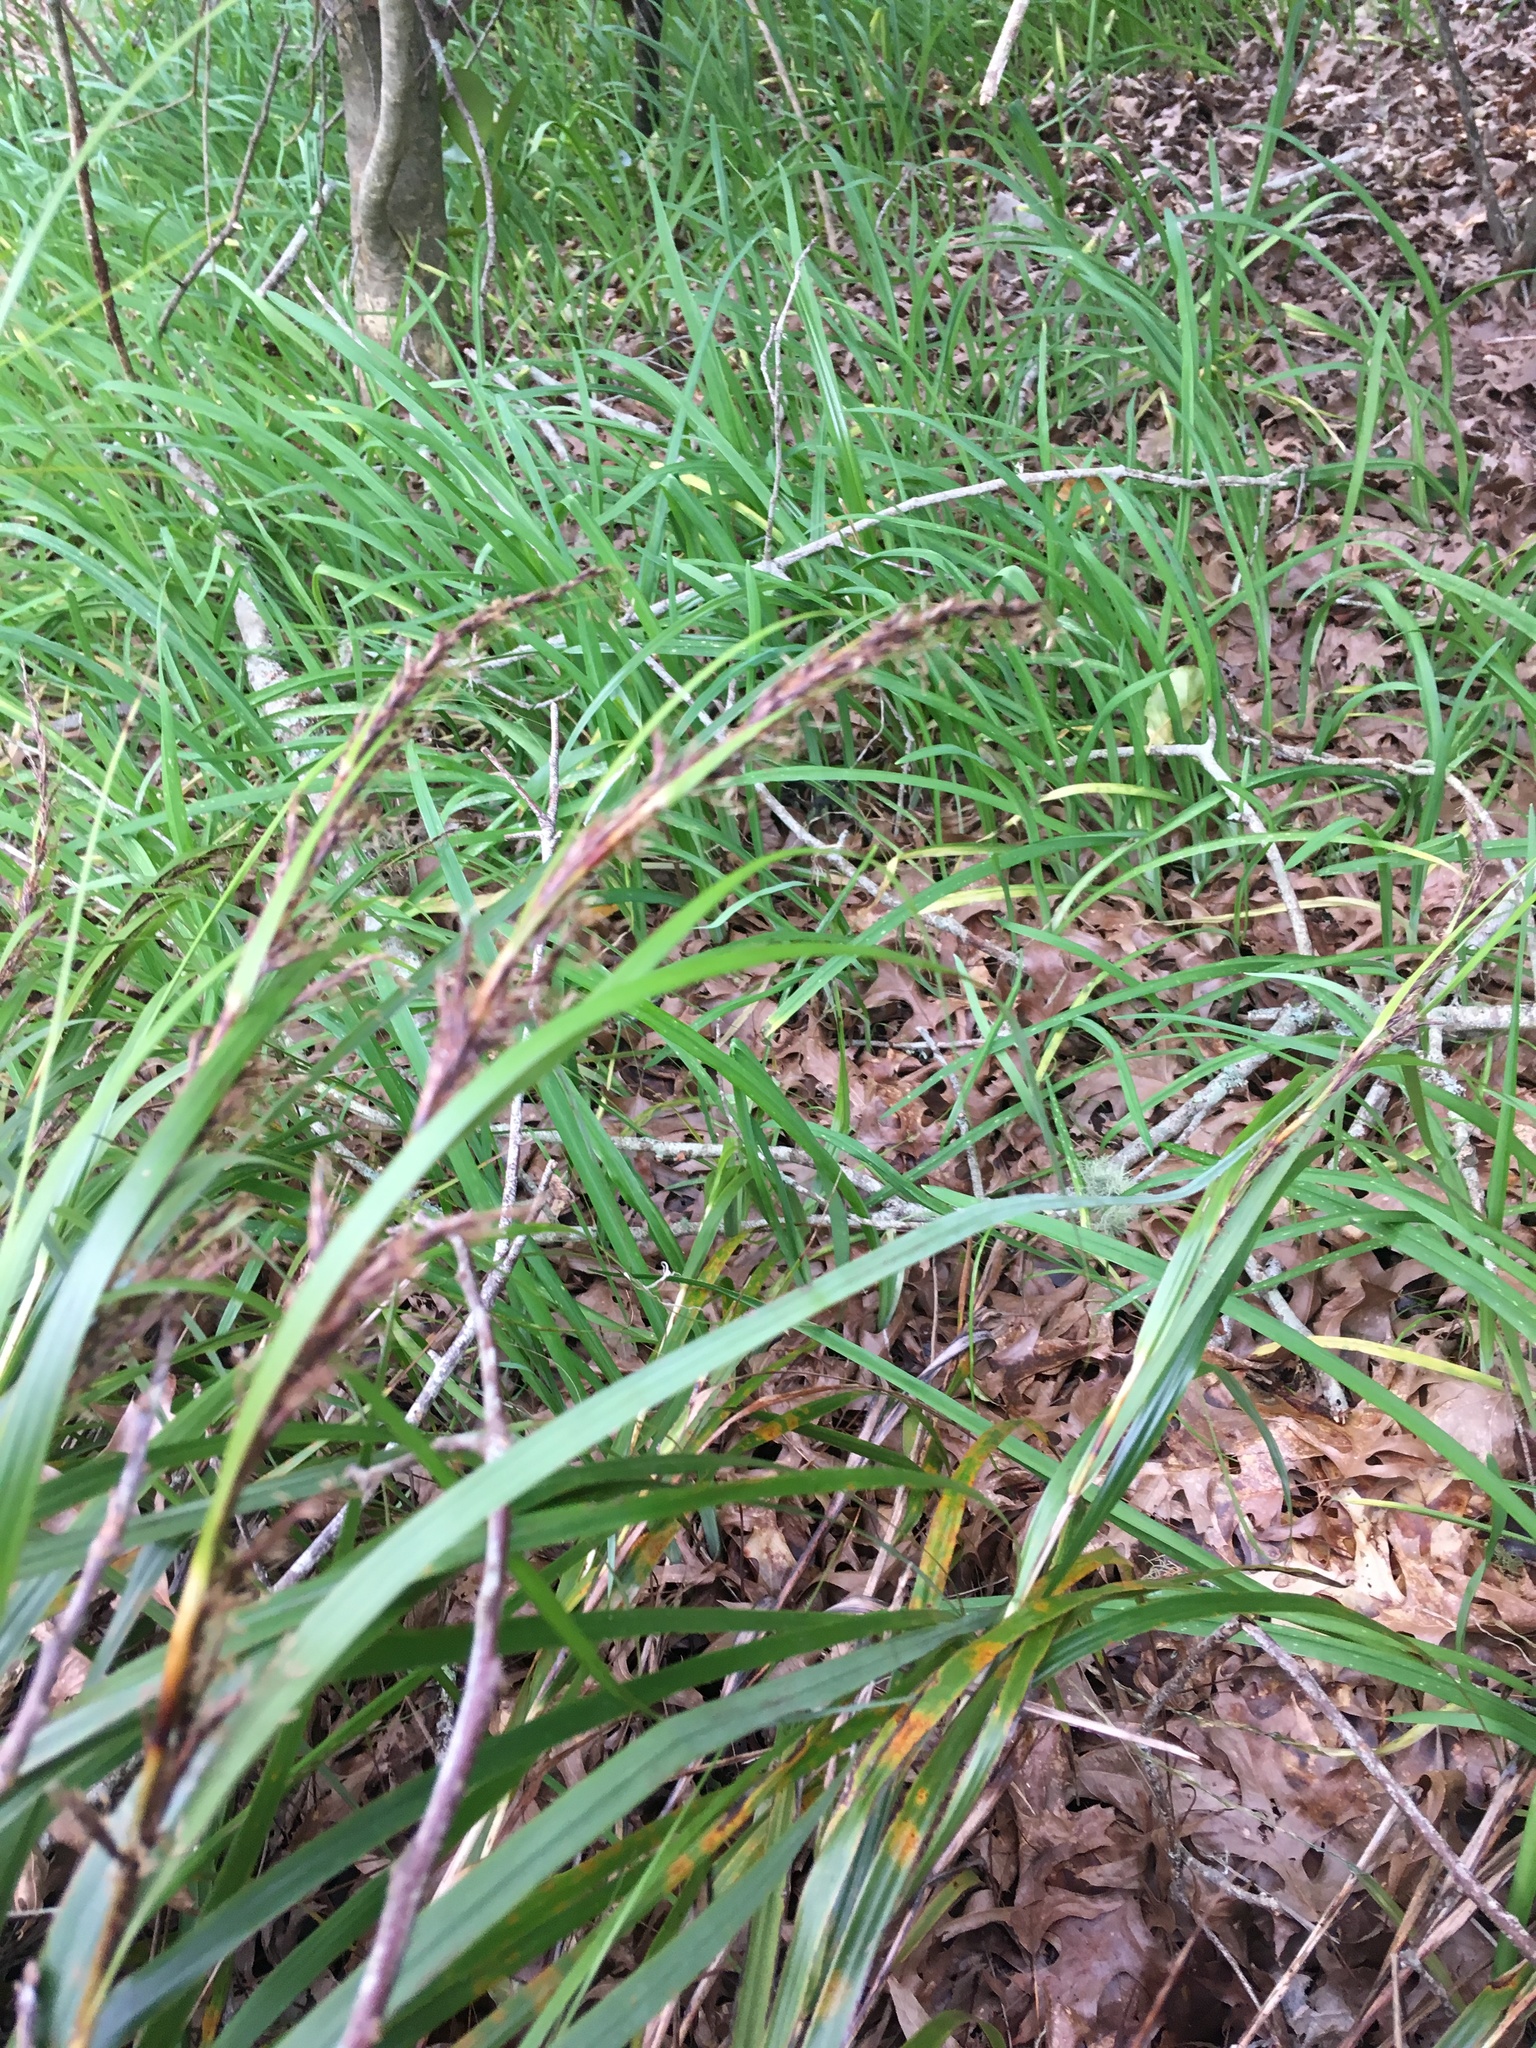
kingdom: Plantae
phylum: Tracheophyta
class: Liliopsida
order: Poales
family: Cyperaceae
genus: Gahnia
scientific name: Gahnia lacera
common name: Sawsedge
